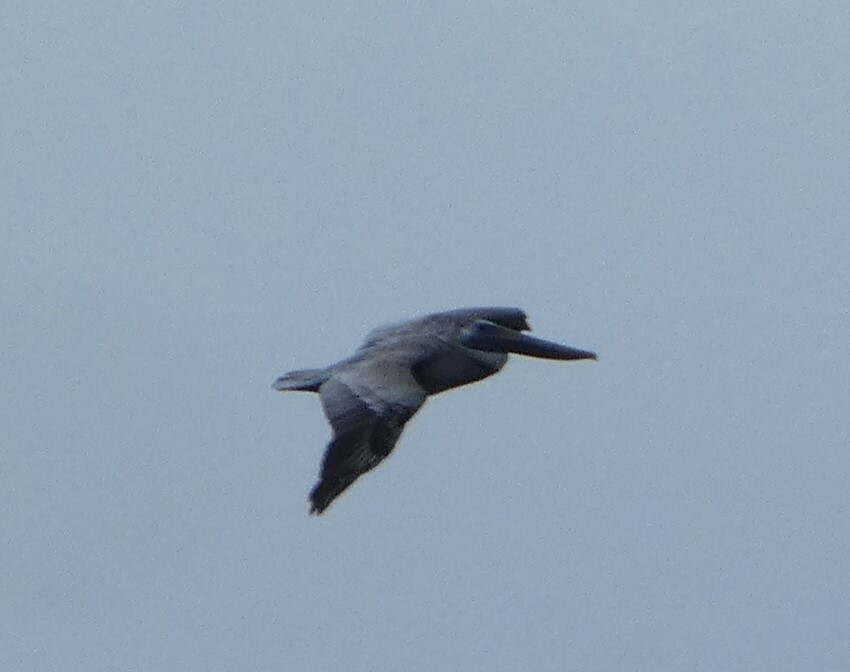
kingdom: Animalia
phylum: Chordata
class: Aves
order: Pelecaniformes
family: Pelecanidae
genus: Pelecanus
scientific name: Pelecanus occidentalis
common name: Brown pelican
